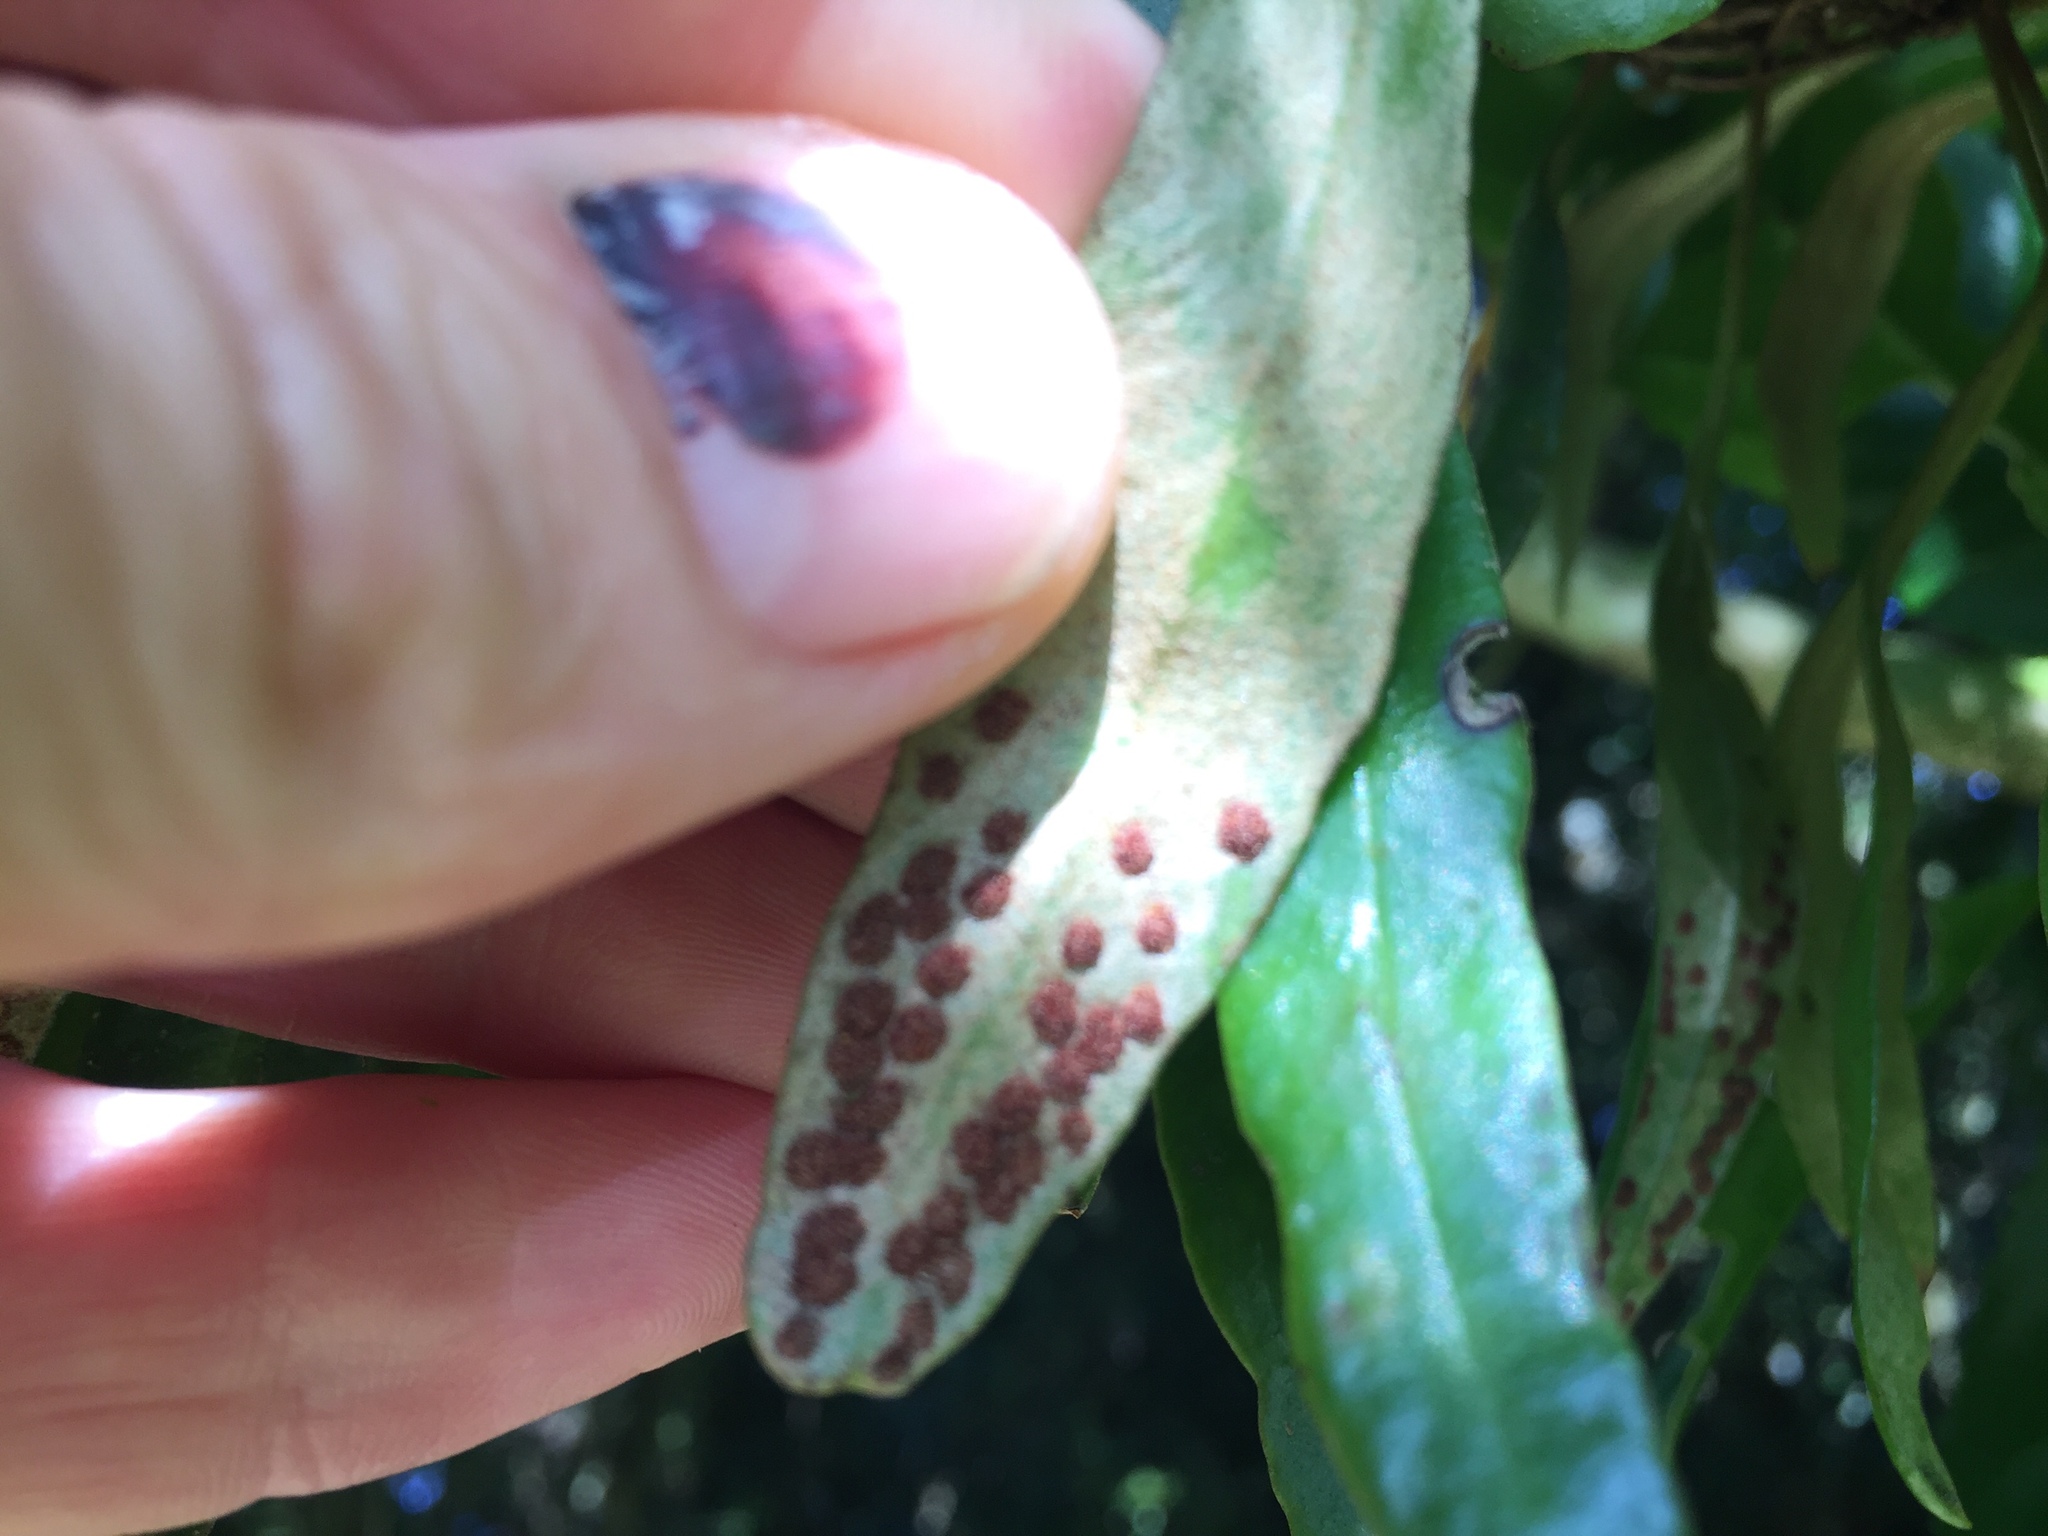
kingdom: Plantae
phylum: Tracheophyta
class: Polypodiopsida
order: Polypodiales
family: Polypodiaceae
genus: Pyrrosia
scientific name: Pyrrosia eleagnifolia
